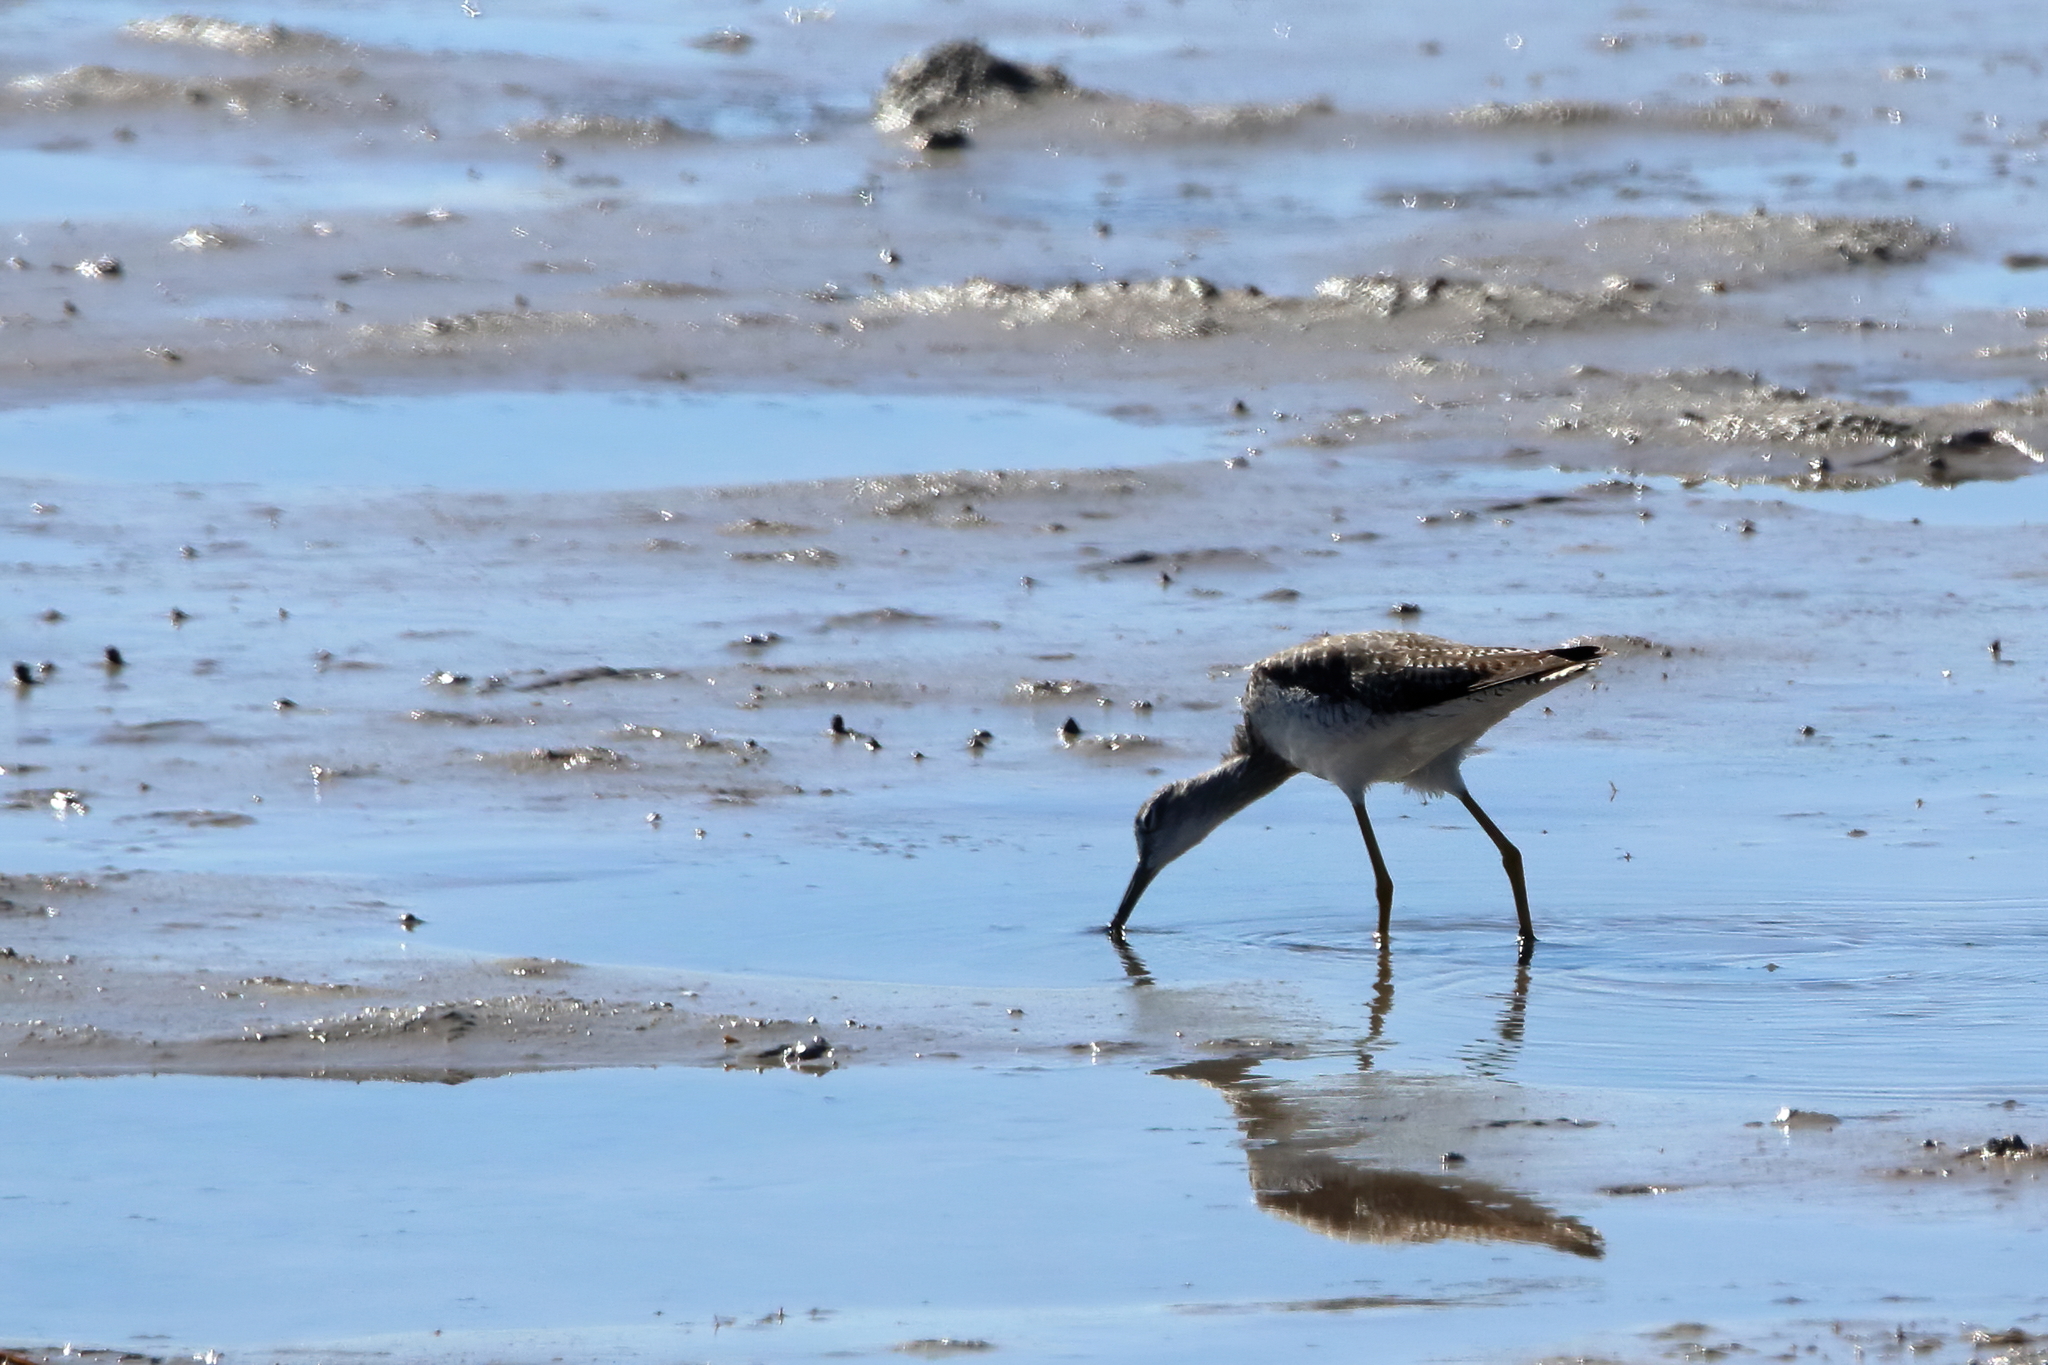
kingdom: Animalia
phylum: Chordata
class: Aves
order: Charadriiformes
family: Scolopacidae
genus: Tringa
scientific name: Tringa melanoleuca
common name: Greater yellowlegs
